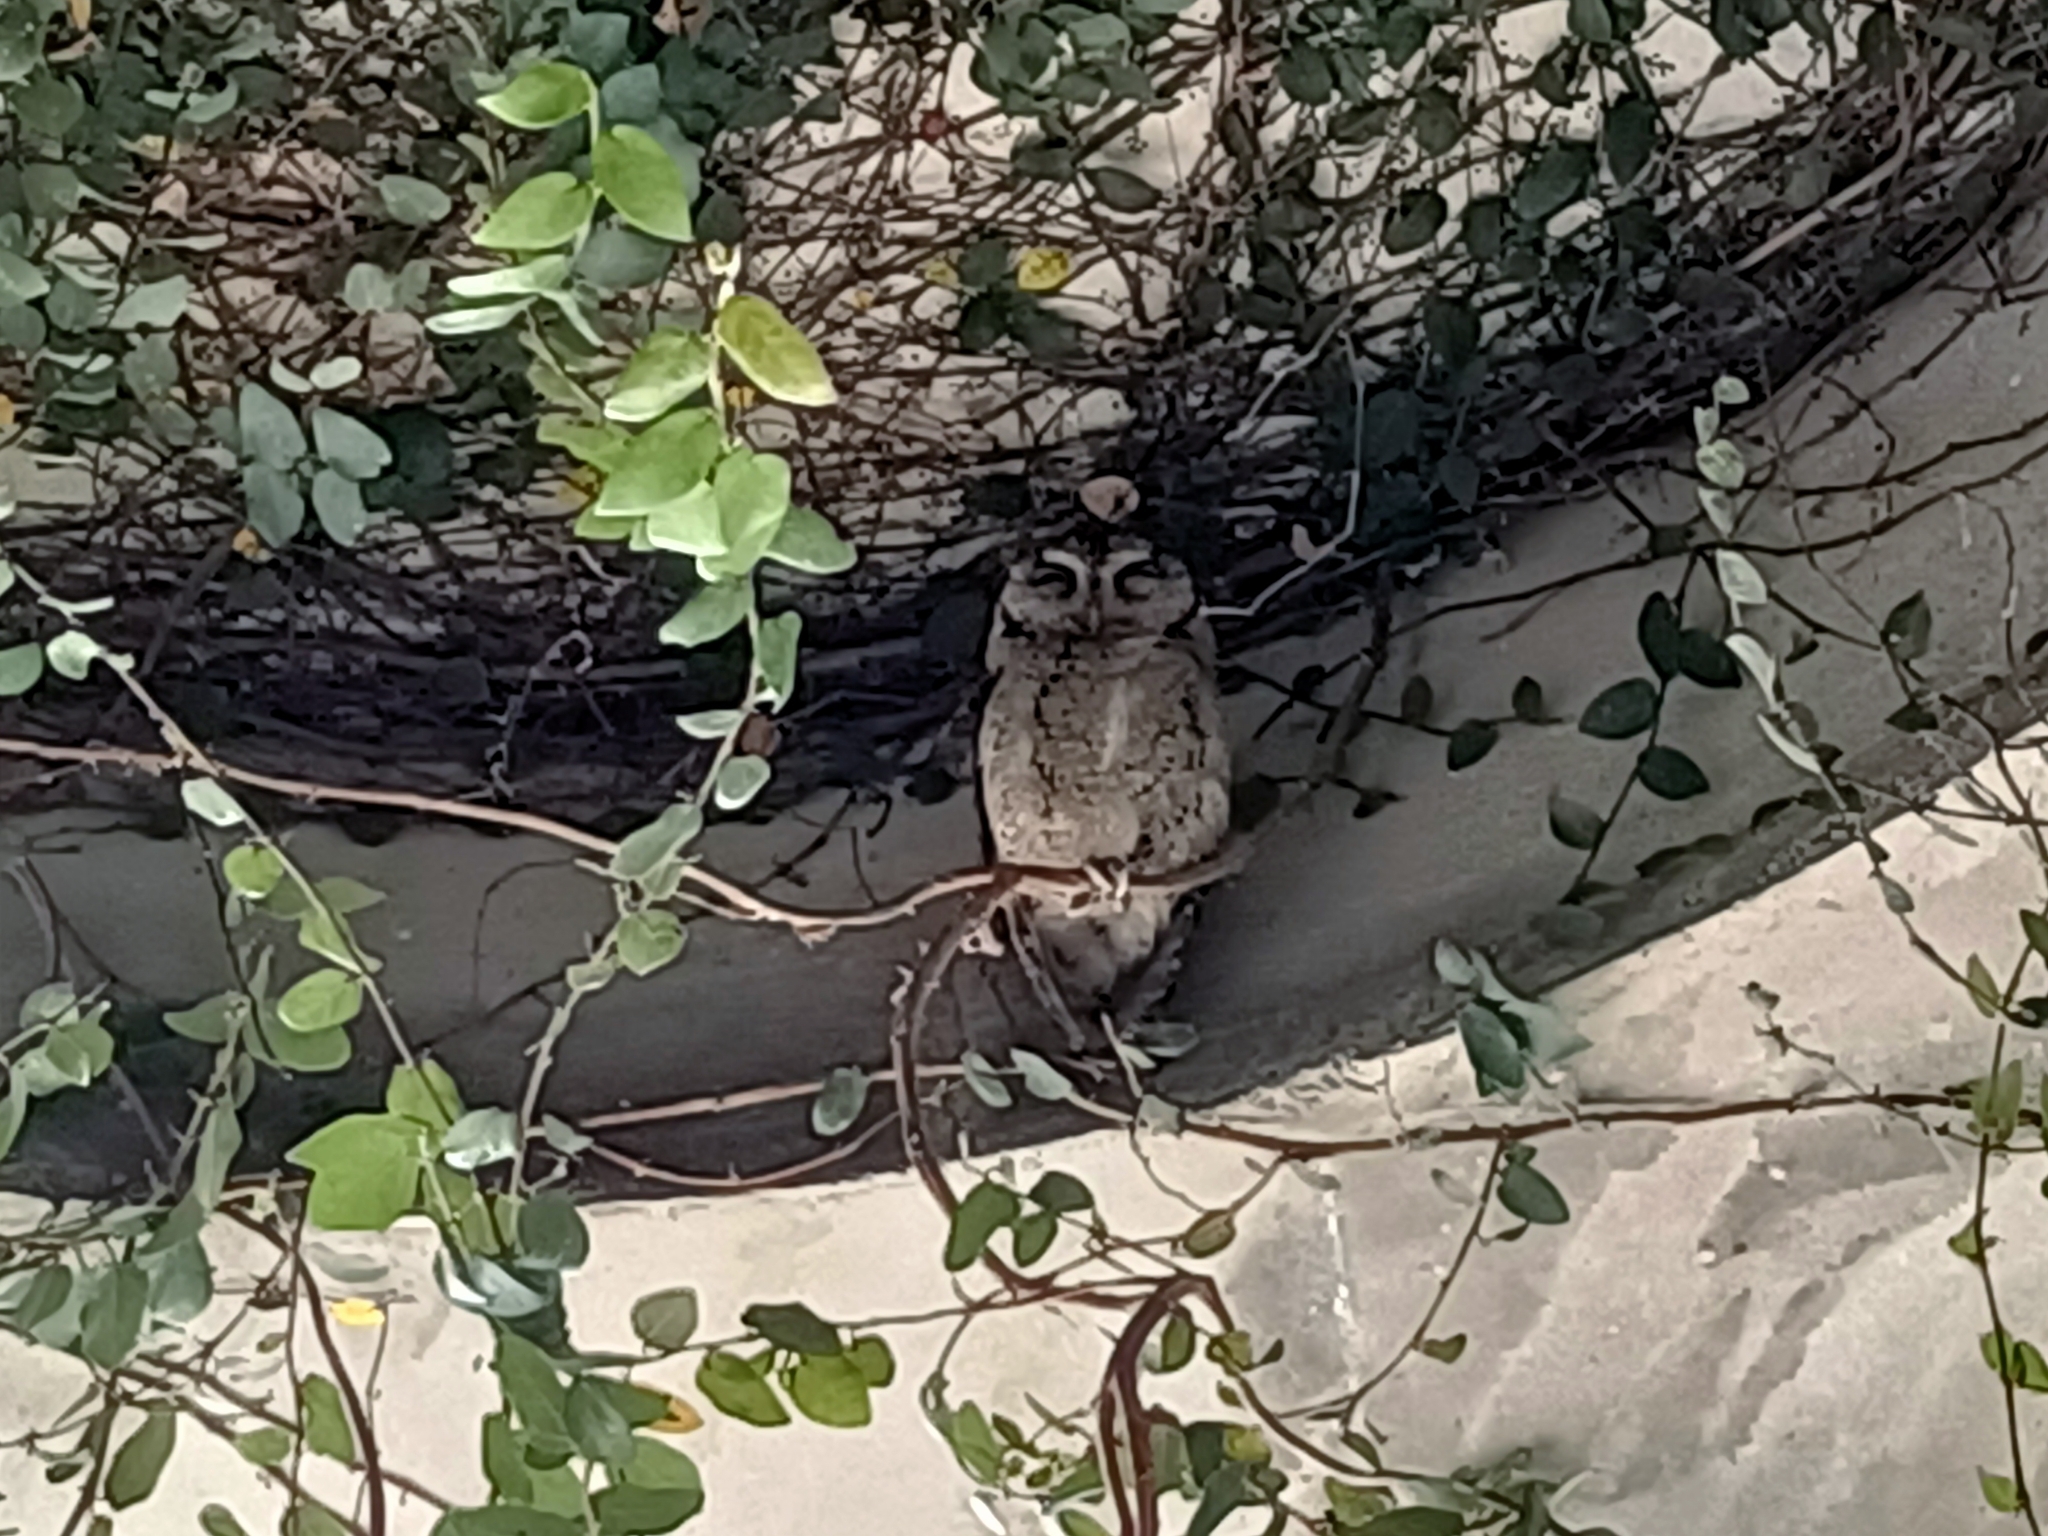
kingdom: Animalia
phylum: Chordata
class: Aves
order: Strigiformes
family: Strigidae
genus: Otus
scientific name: Otus lettia
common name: Collared scops owl
